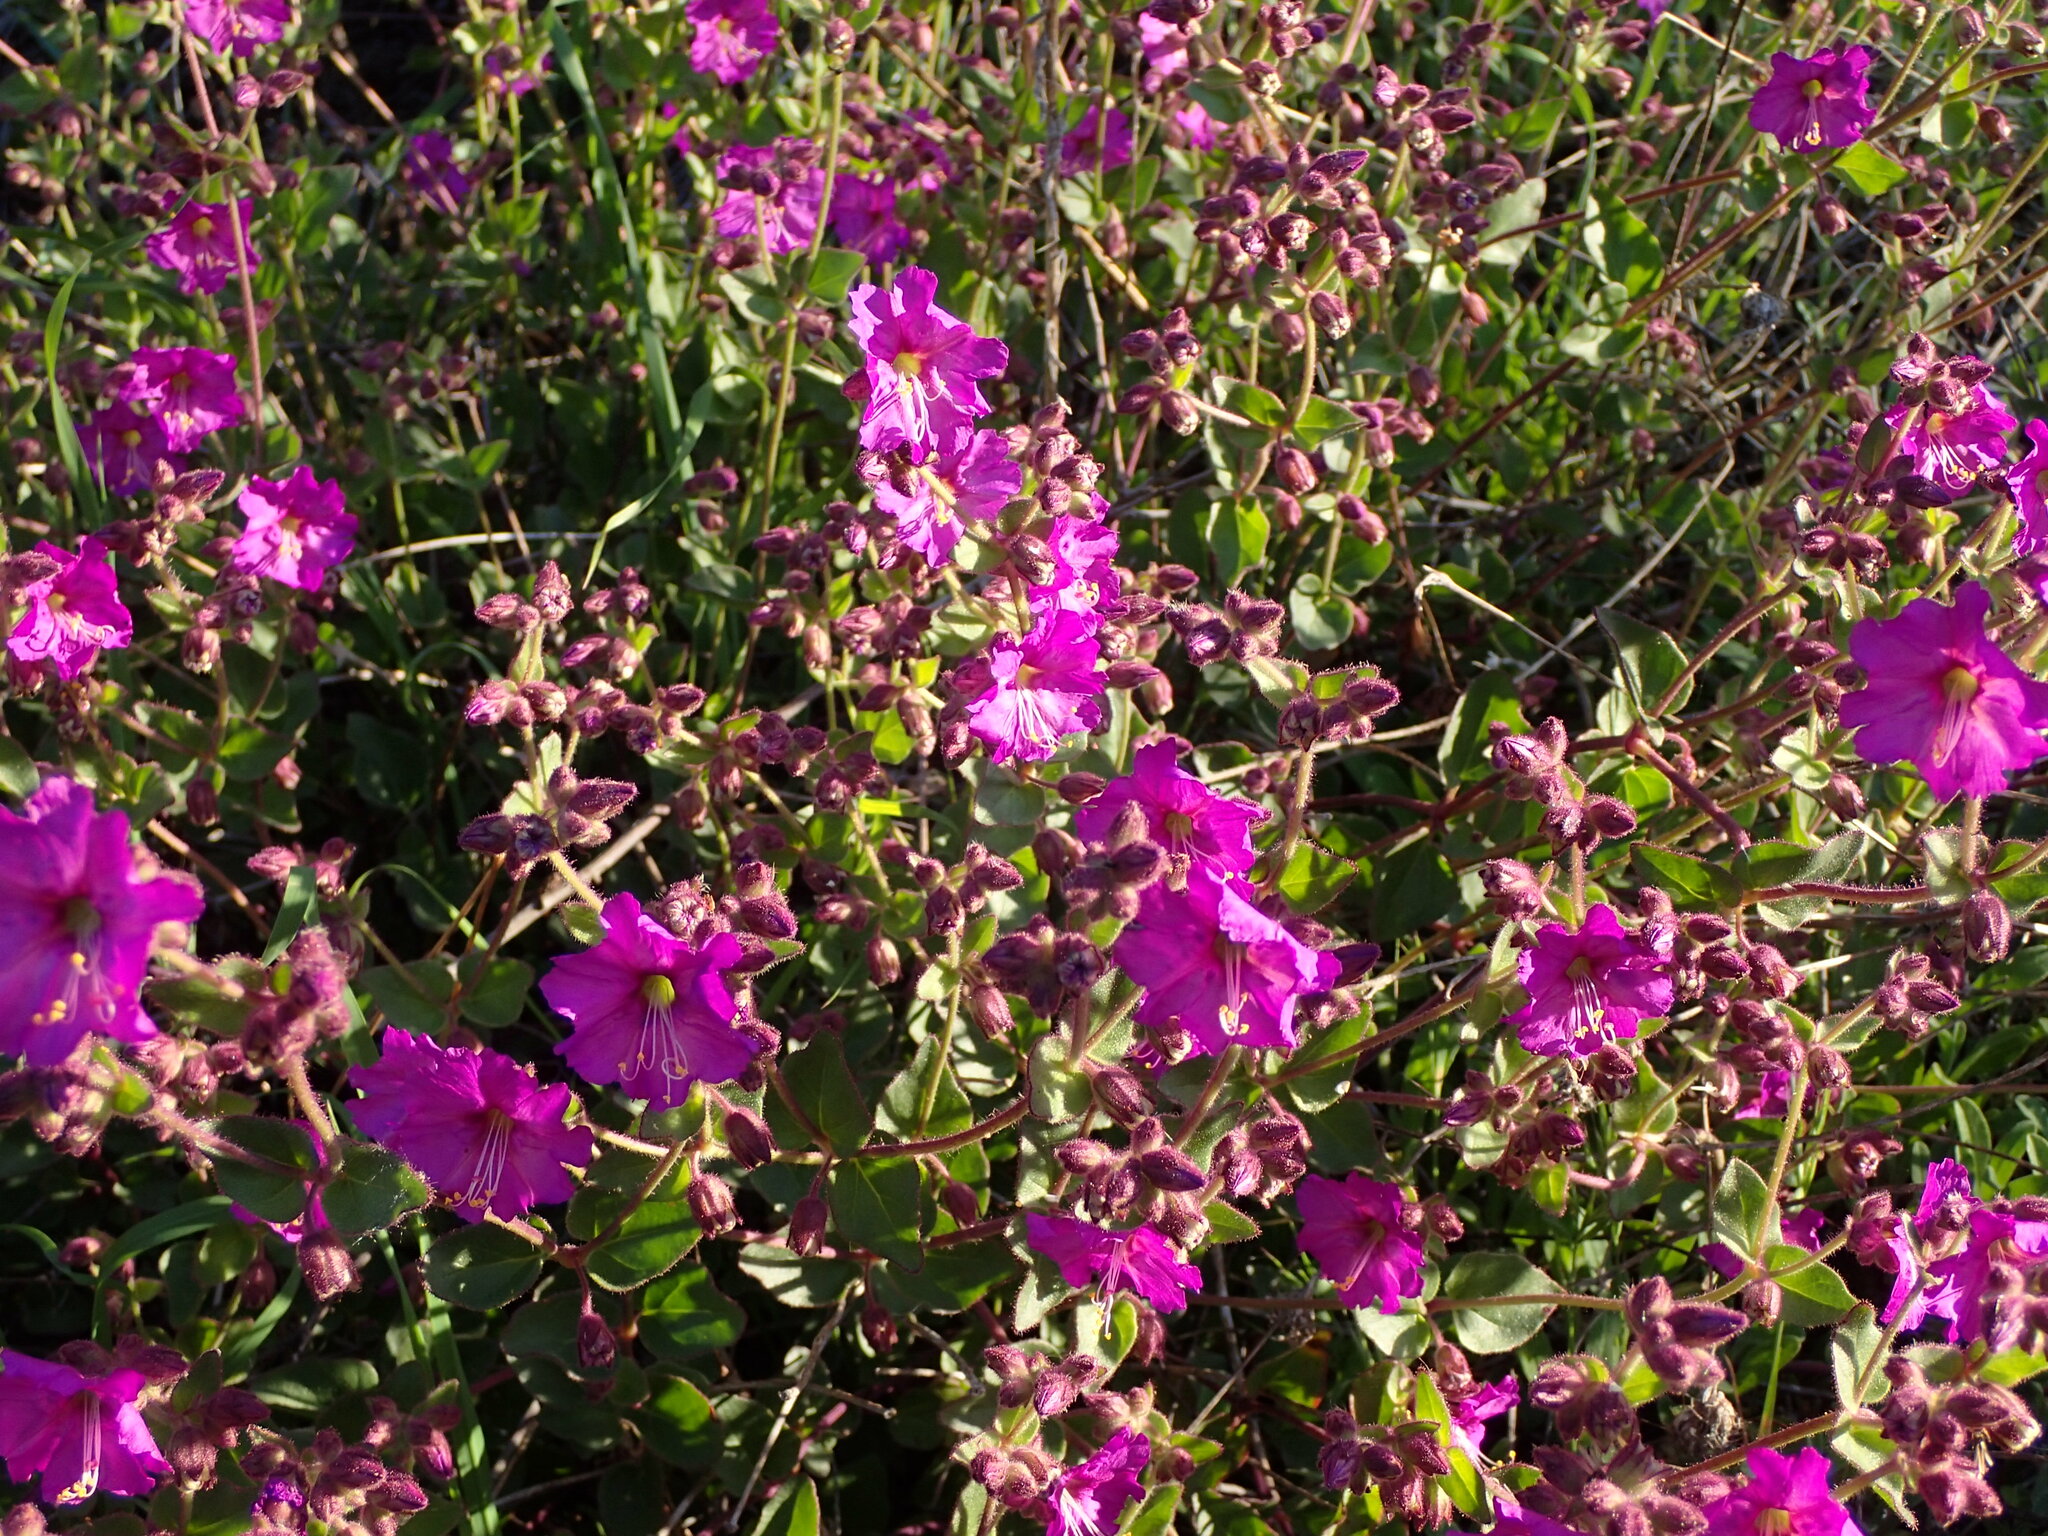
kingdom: Plantae
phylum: Tracheophyta
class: Magnoliopsida
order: Caryophyllales
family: Nyctaginaceae
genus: Mirabilis
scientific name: Mirabilis laevis
